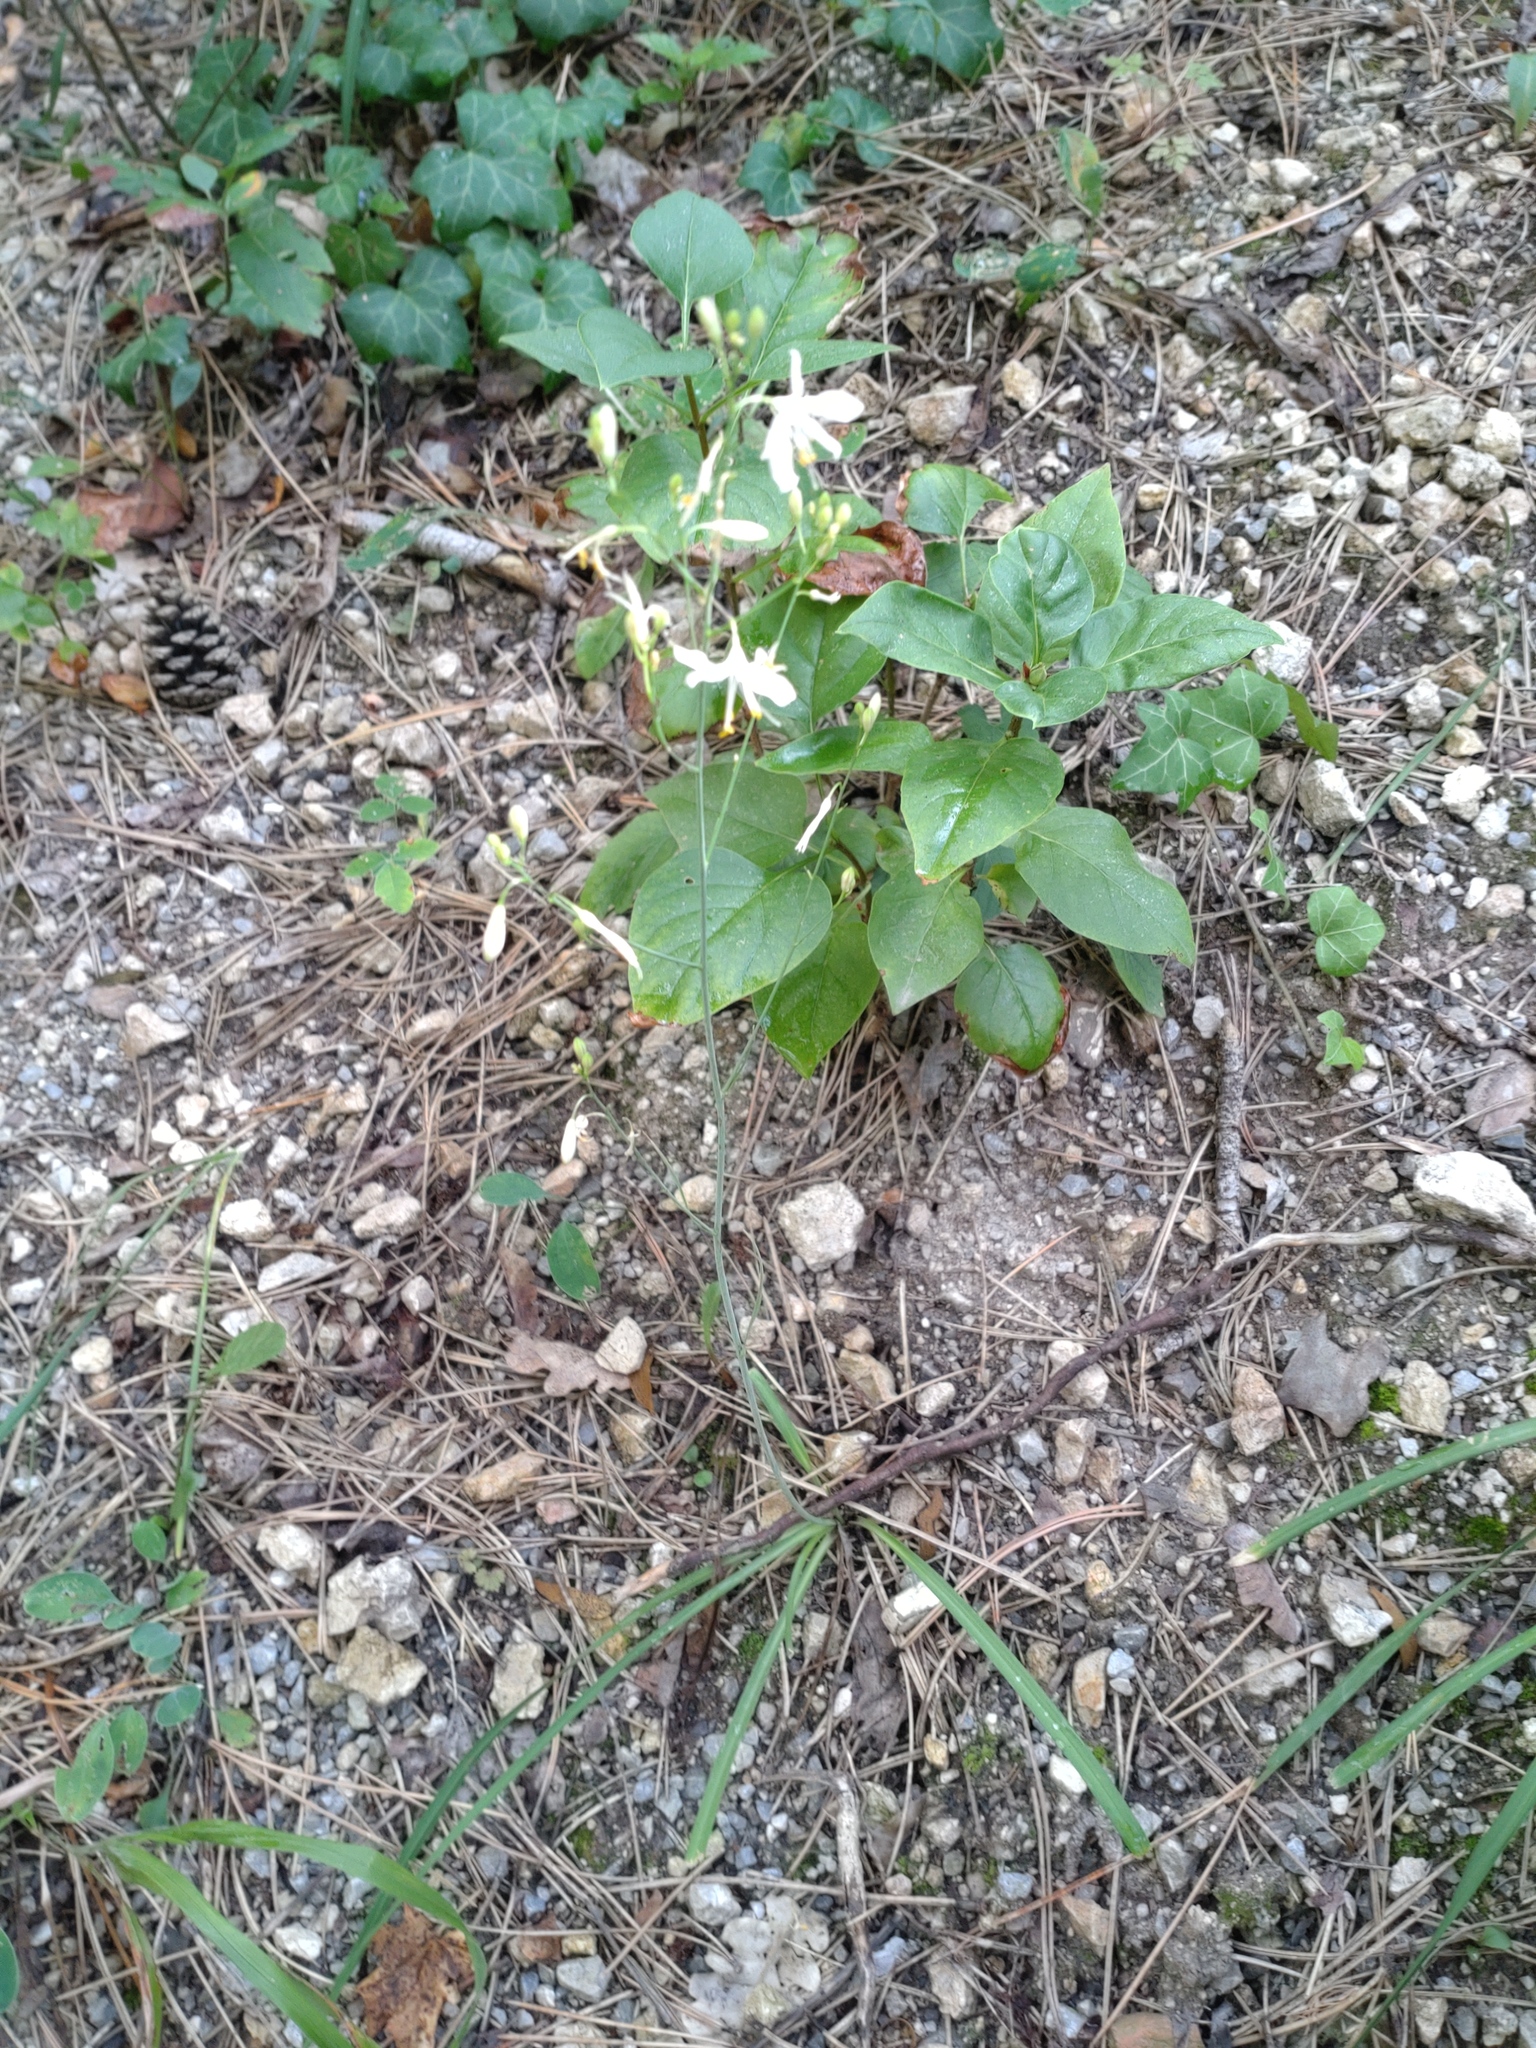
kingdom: Plantae
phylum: Tracheophyta
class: Liliopsida
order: Asparagales
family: Asparagaceae
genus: Anthericum
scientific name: Anthericum ramosum
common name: Branched st. bernard's-lily
